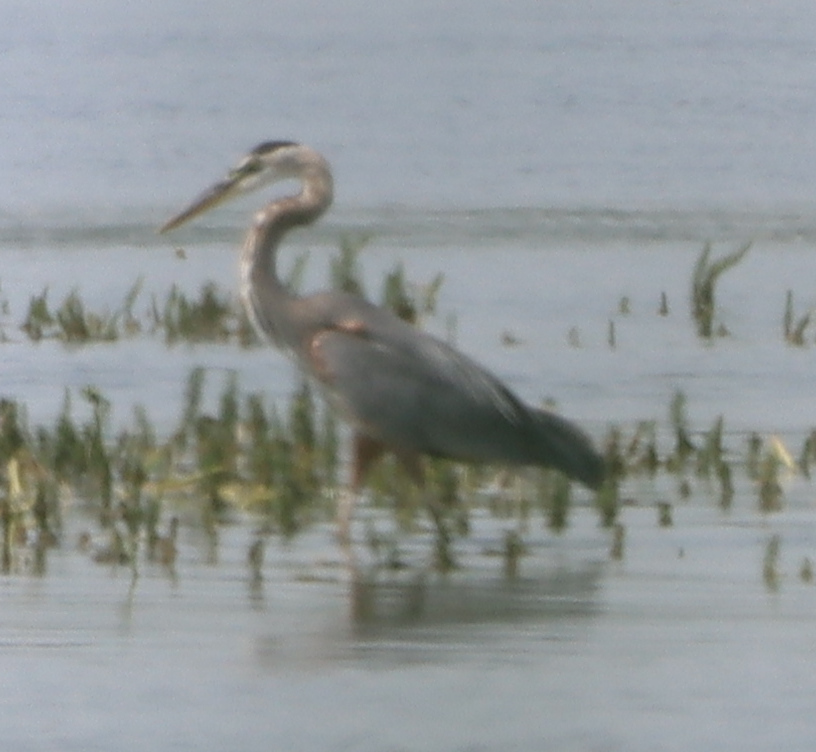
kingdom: Animalia
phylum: Chordata
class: Aves
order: Pelecaniformes
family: Ardeidae
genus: Ardea
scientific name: Ardea herodias
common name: Great blue heron
